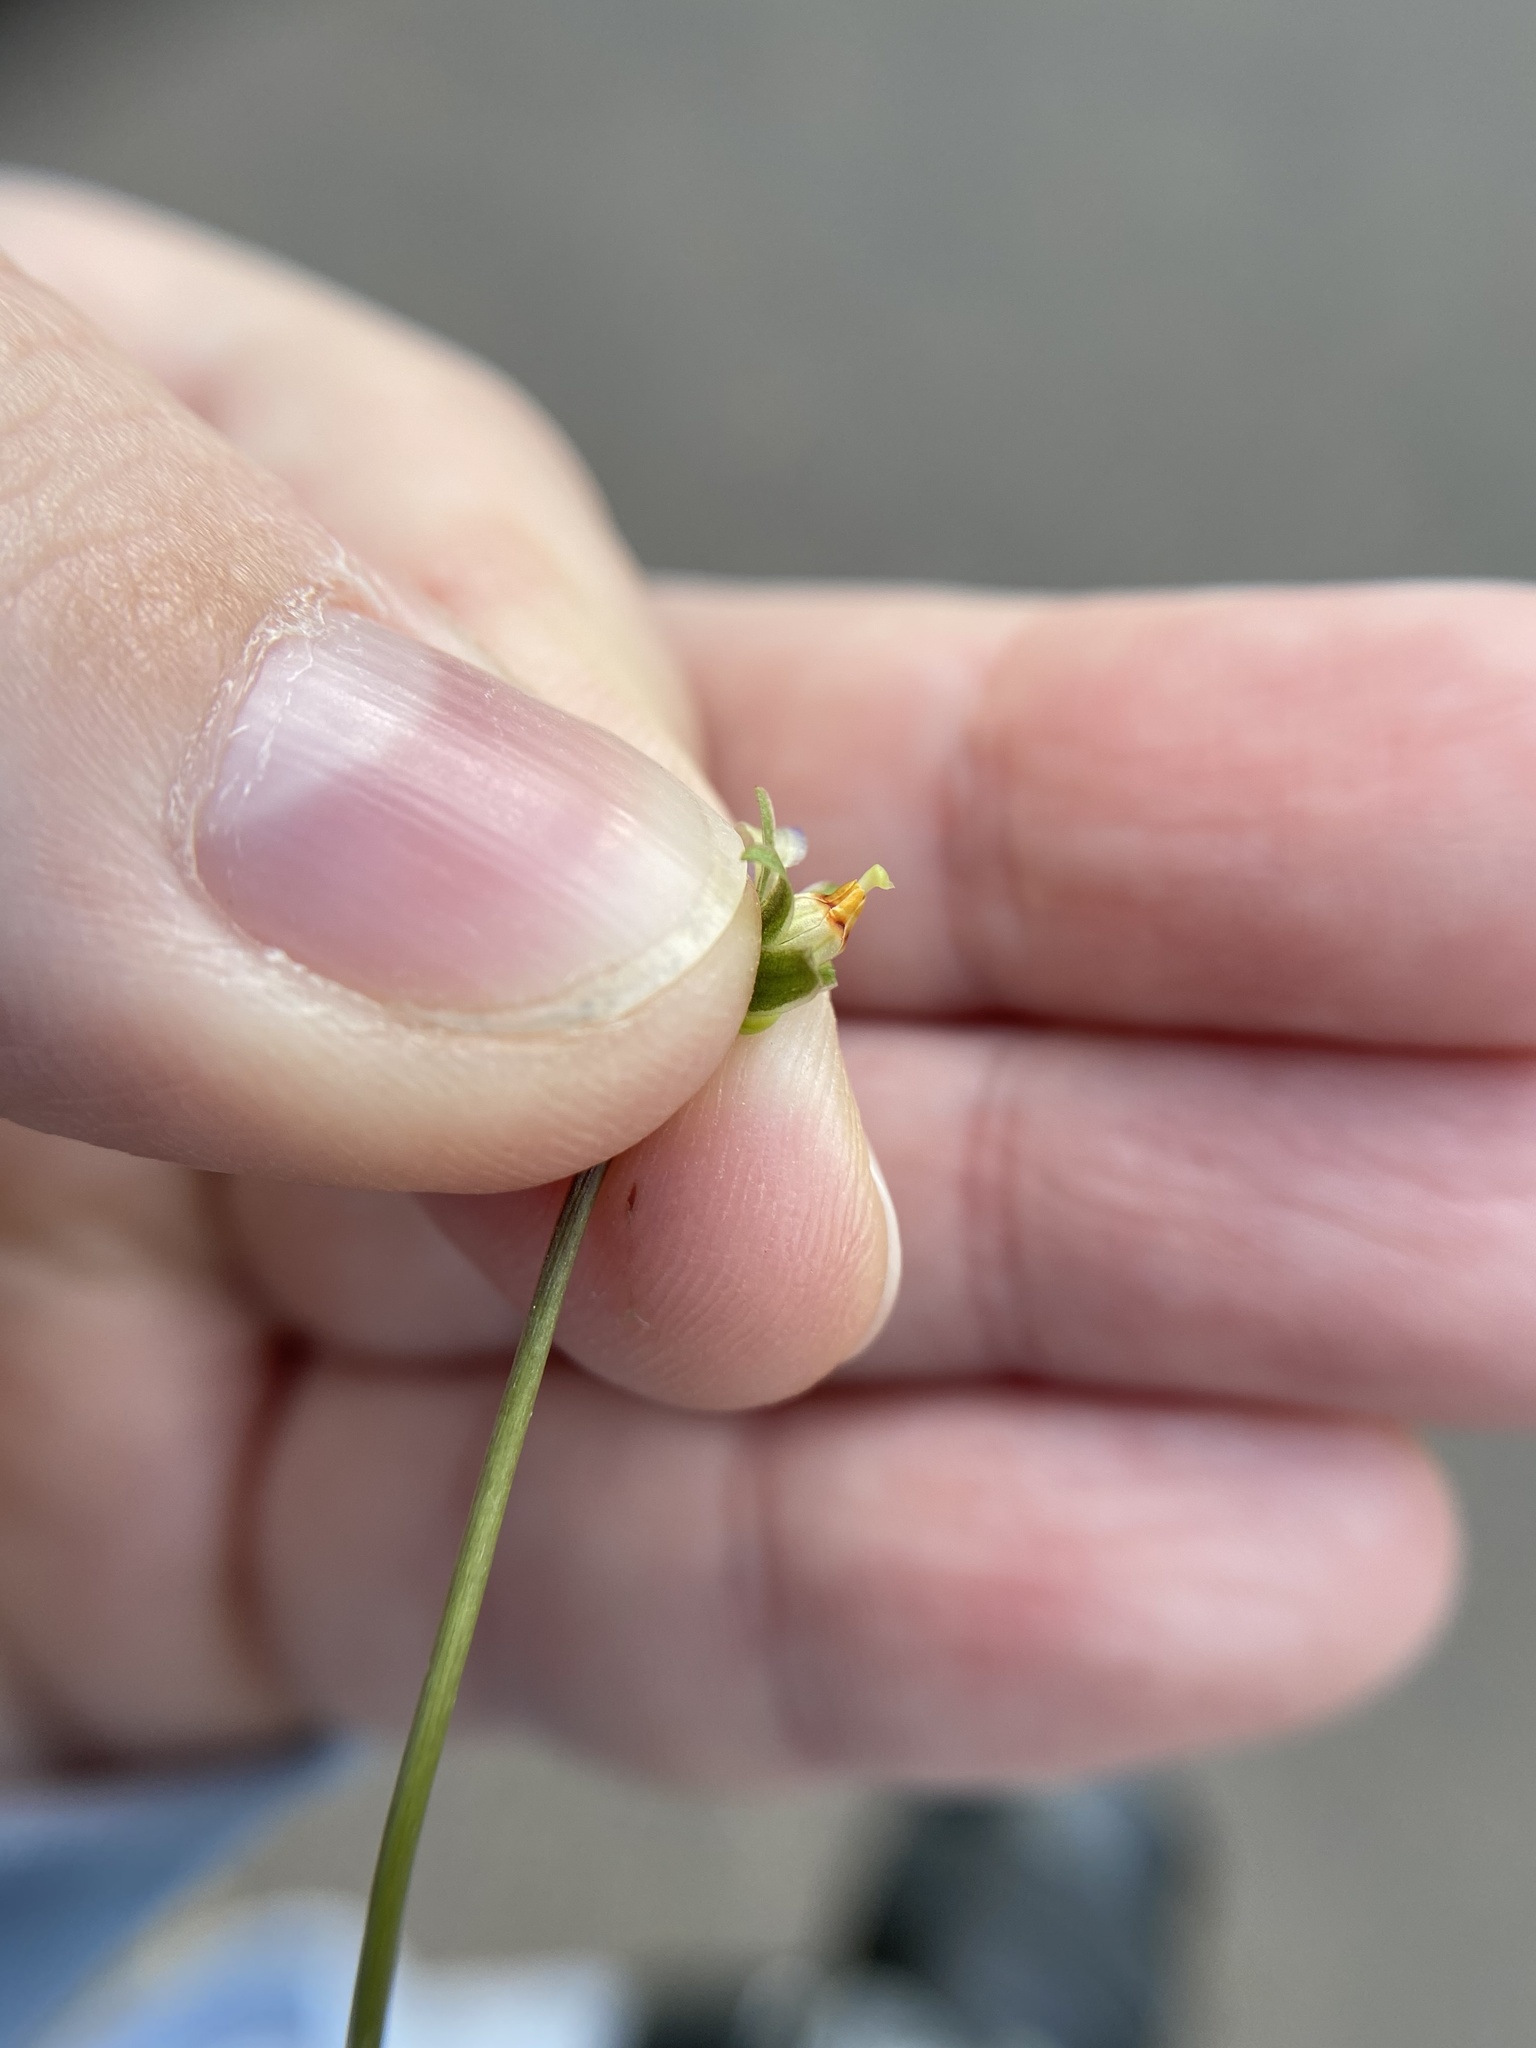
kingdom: Plantae
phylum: Tracheophyta
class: Magnoliopsida
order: Malpighiales
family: Violaceae
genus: Viola
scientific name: Viola affinis
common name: Leconte's violet
